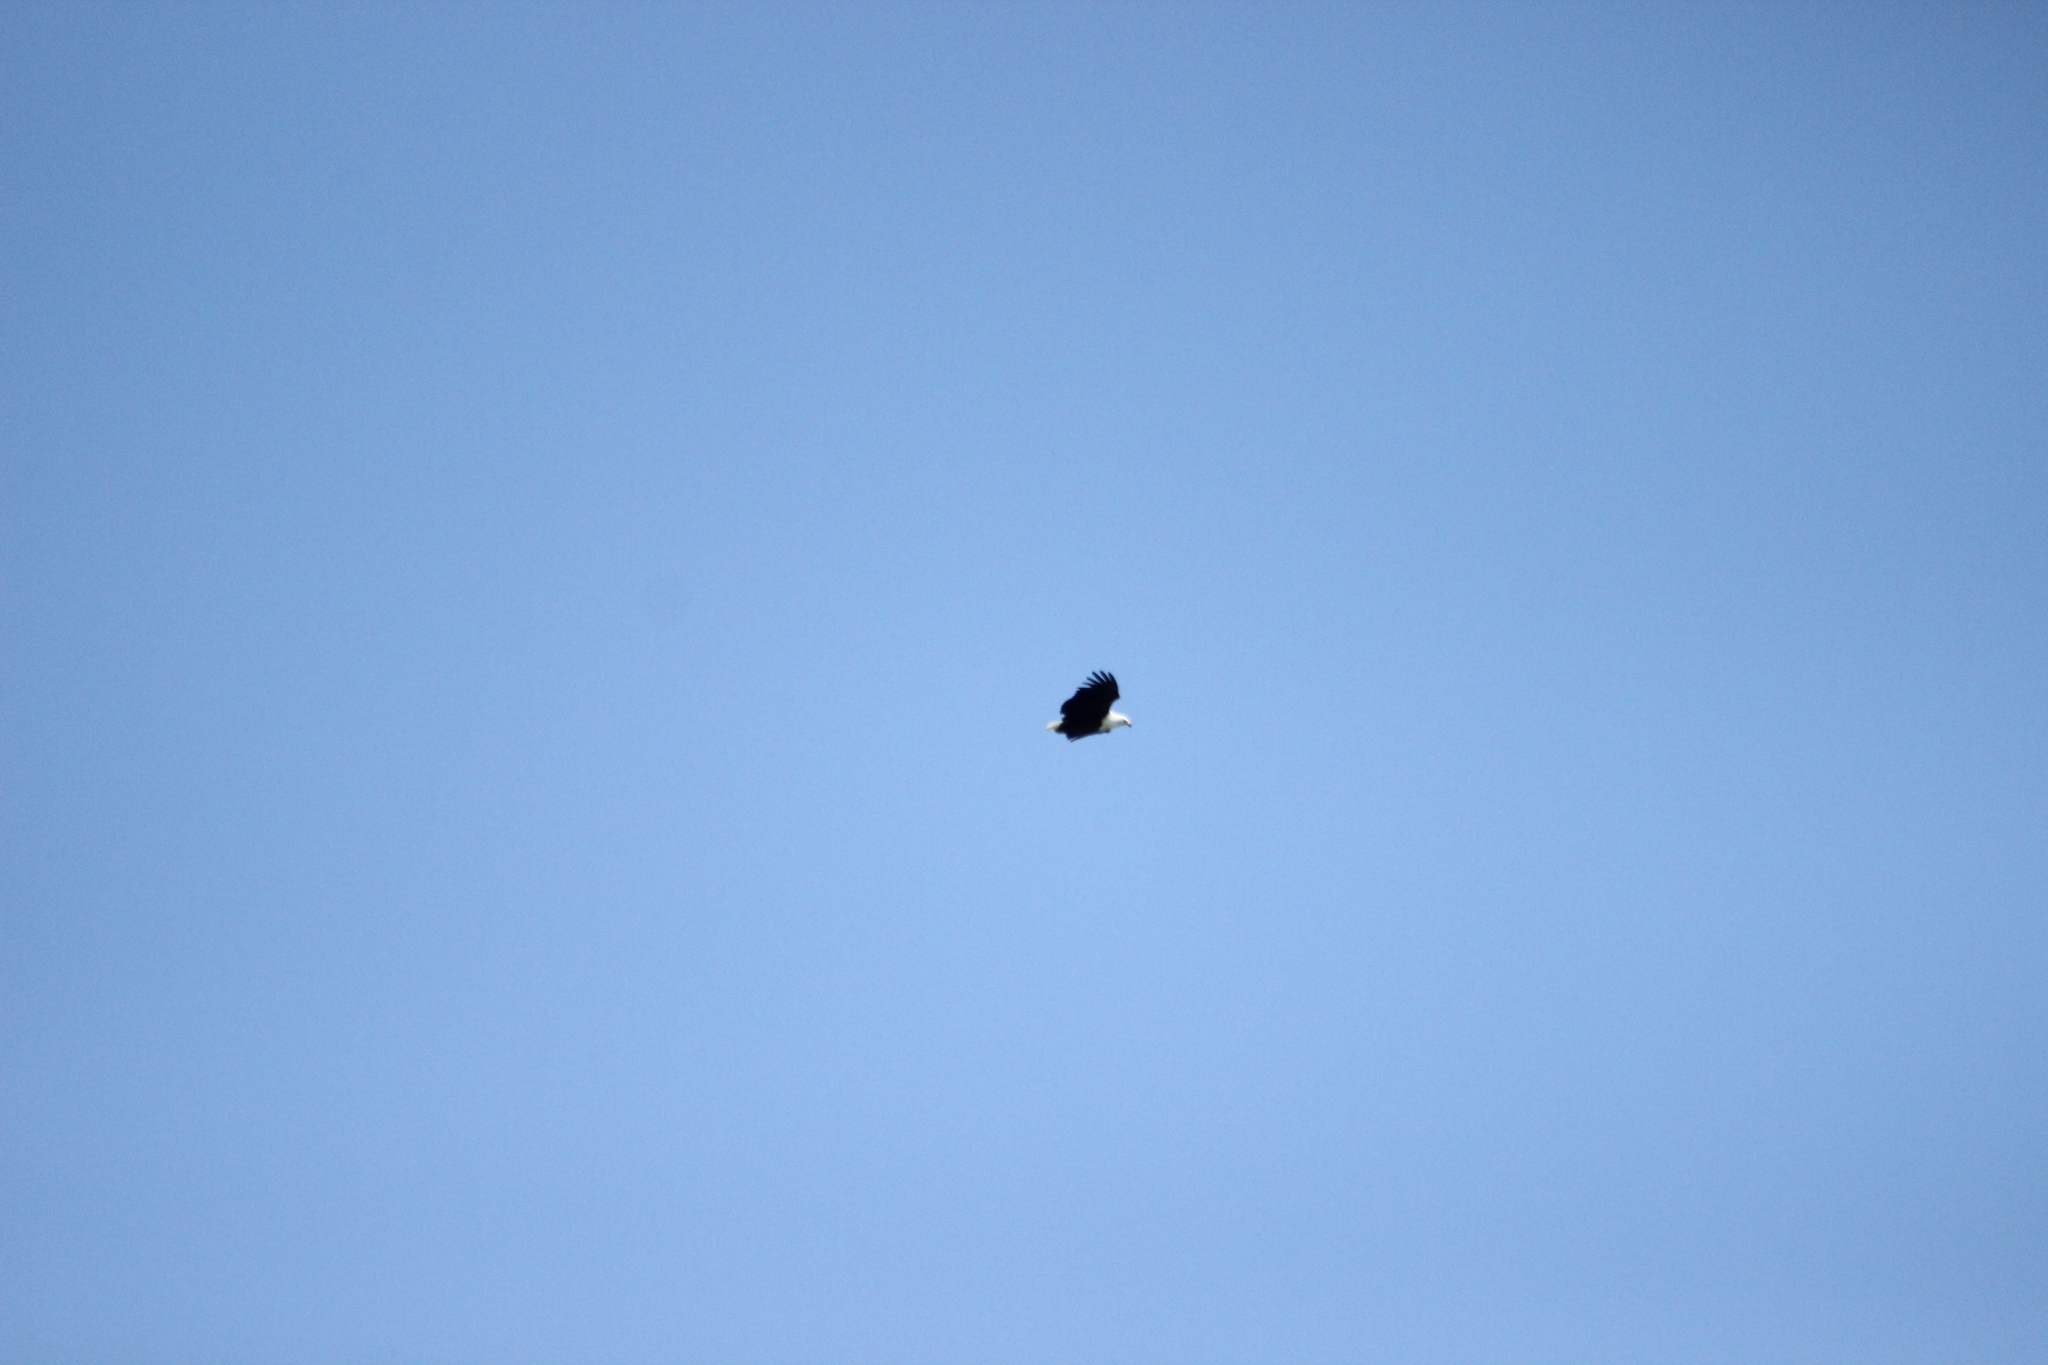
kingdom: Animalia
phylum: Chordata
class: Aves
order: Accipitriformes
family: Accipitridae
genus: Haliaeetus
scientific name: Haliaeetus vocifer
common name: African fish eagle
